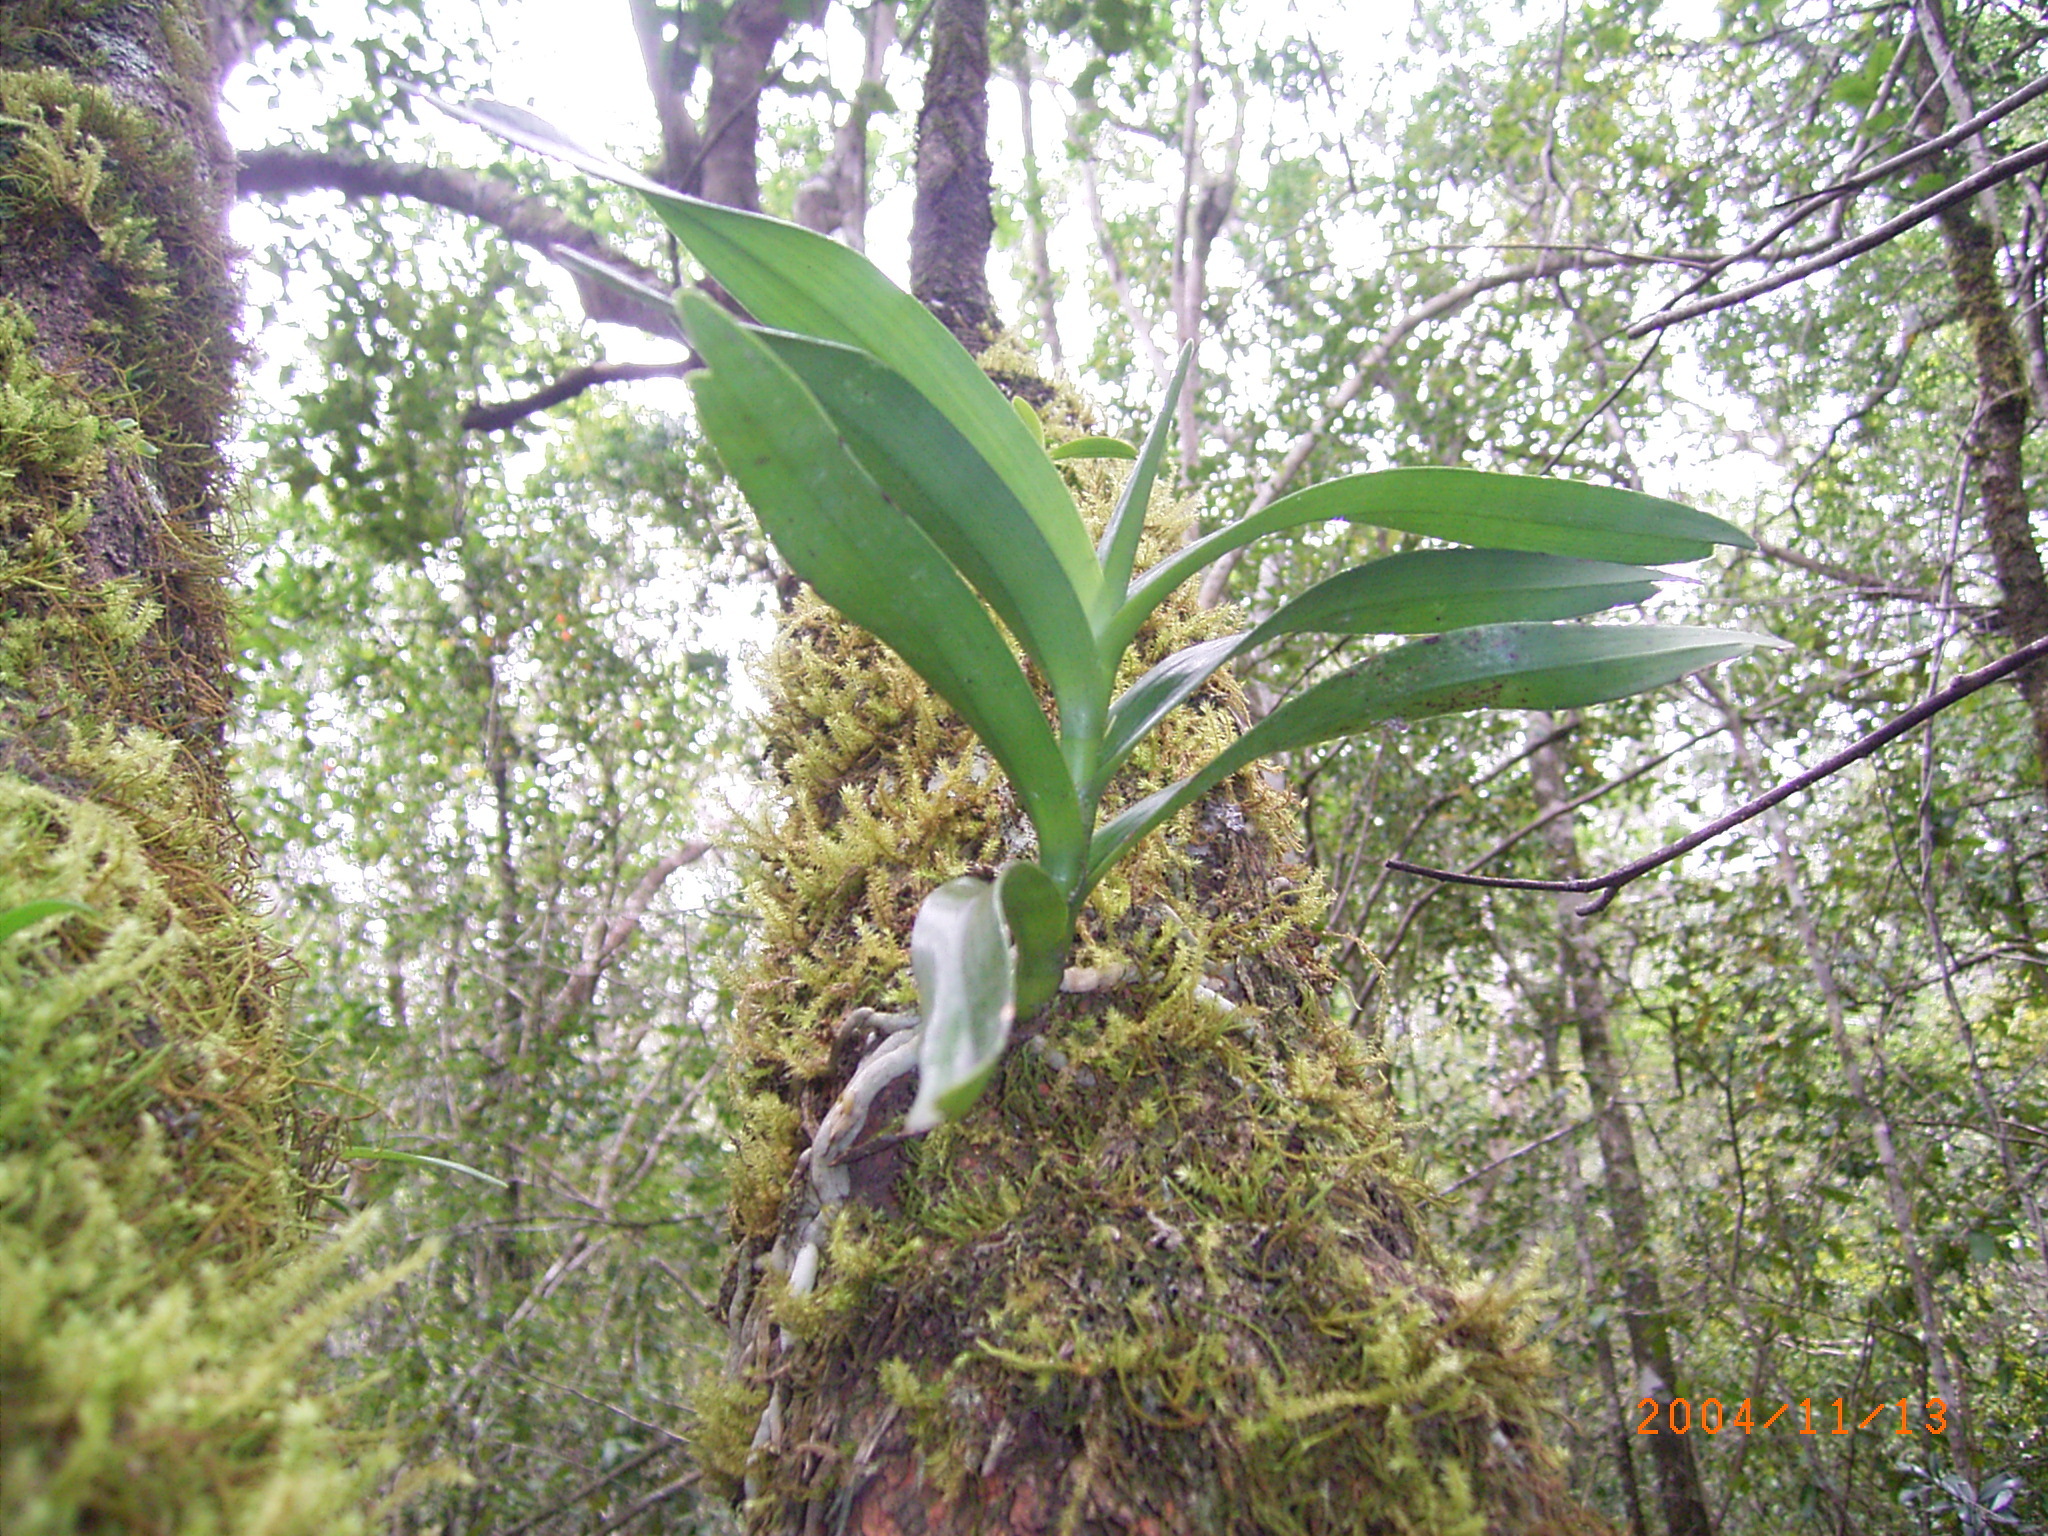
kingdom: Plantae
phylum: Tracheophyta
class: Liliopsida
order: Asparagales
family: Orchidaceae
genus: Cyrtorchis
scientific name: Cyrtorchis arcuata
